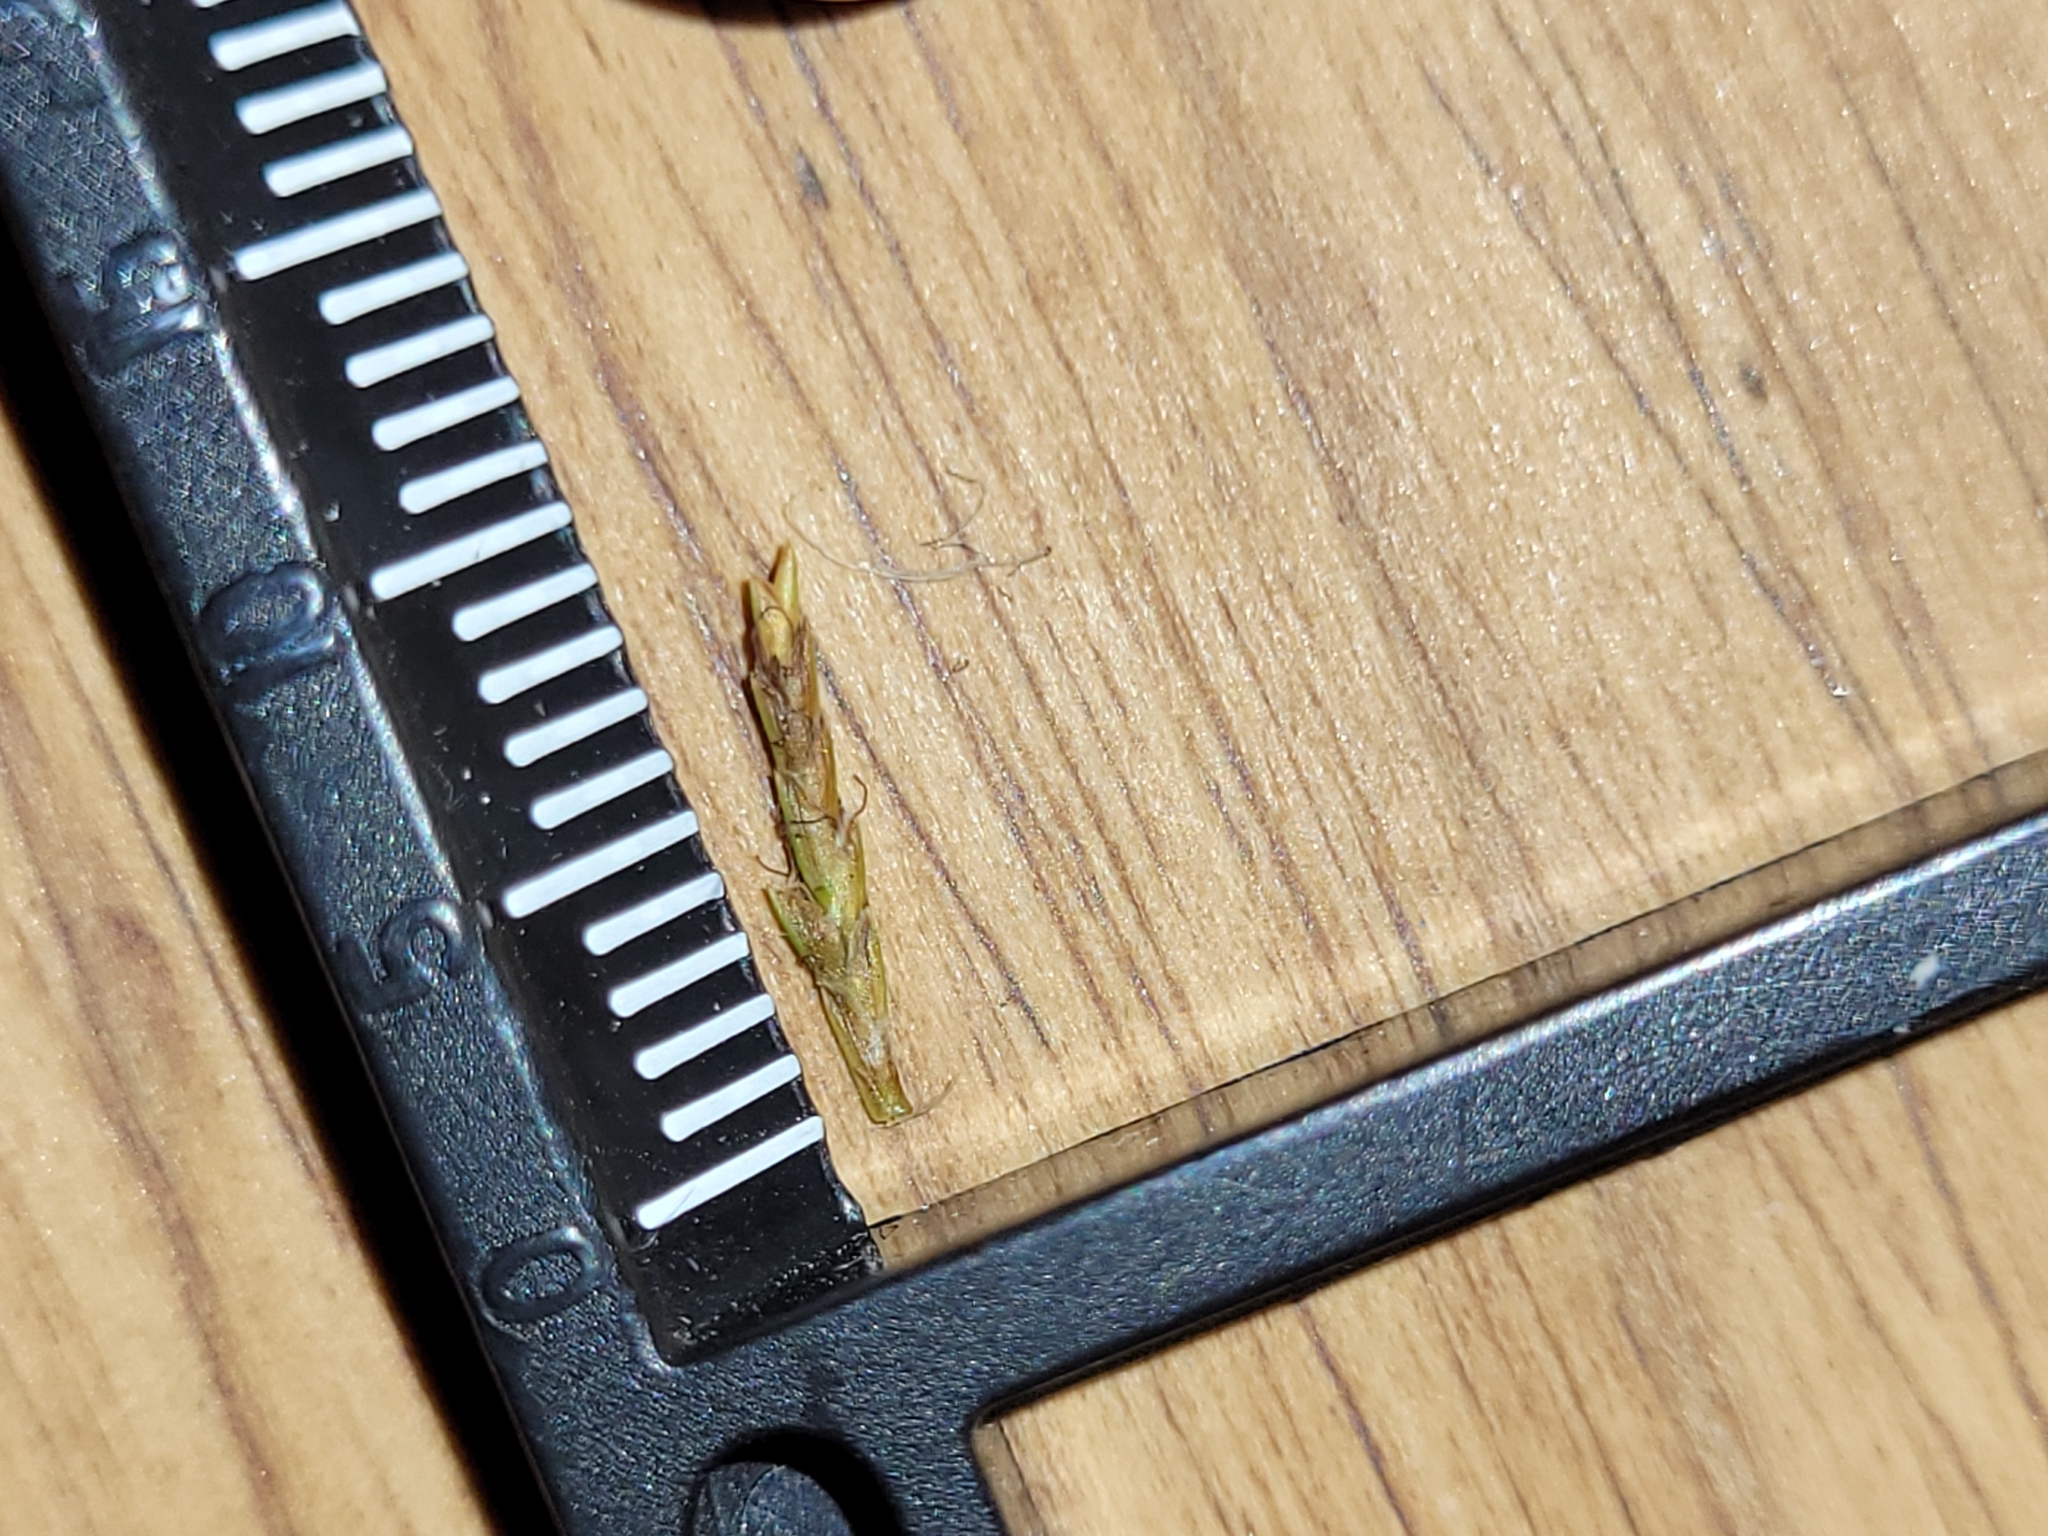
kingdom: Plantae
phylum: Tracheophyta
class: Liliopsida
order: Poales
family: Cyperaceae
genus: Cyperus
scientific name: Cyperus esculentus
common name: Yellow nutsedge
